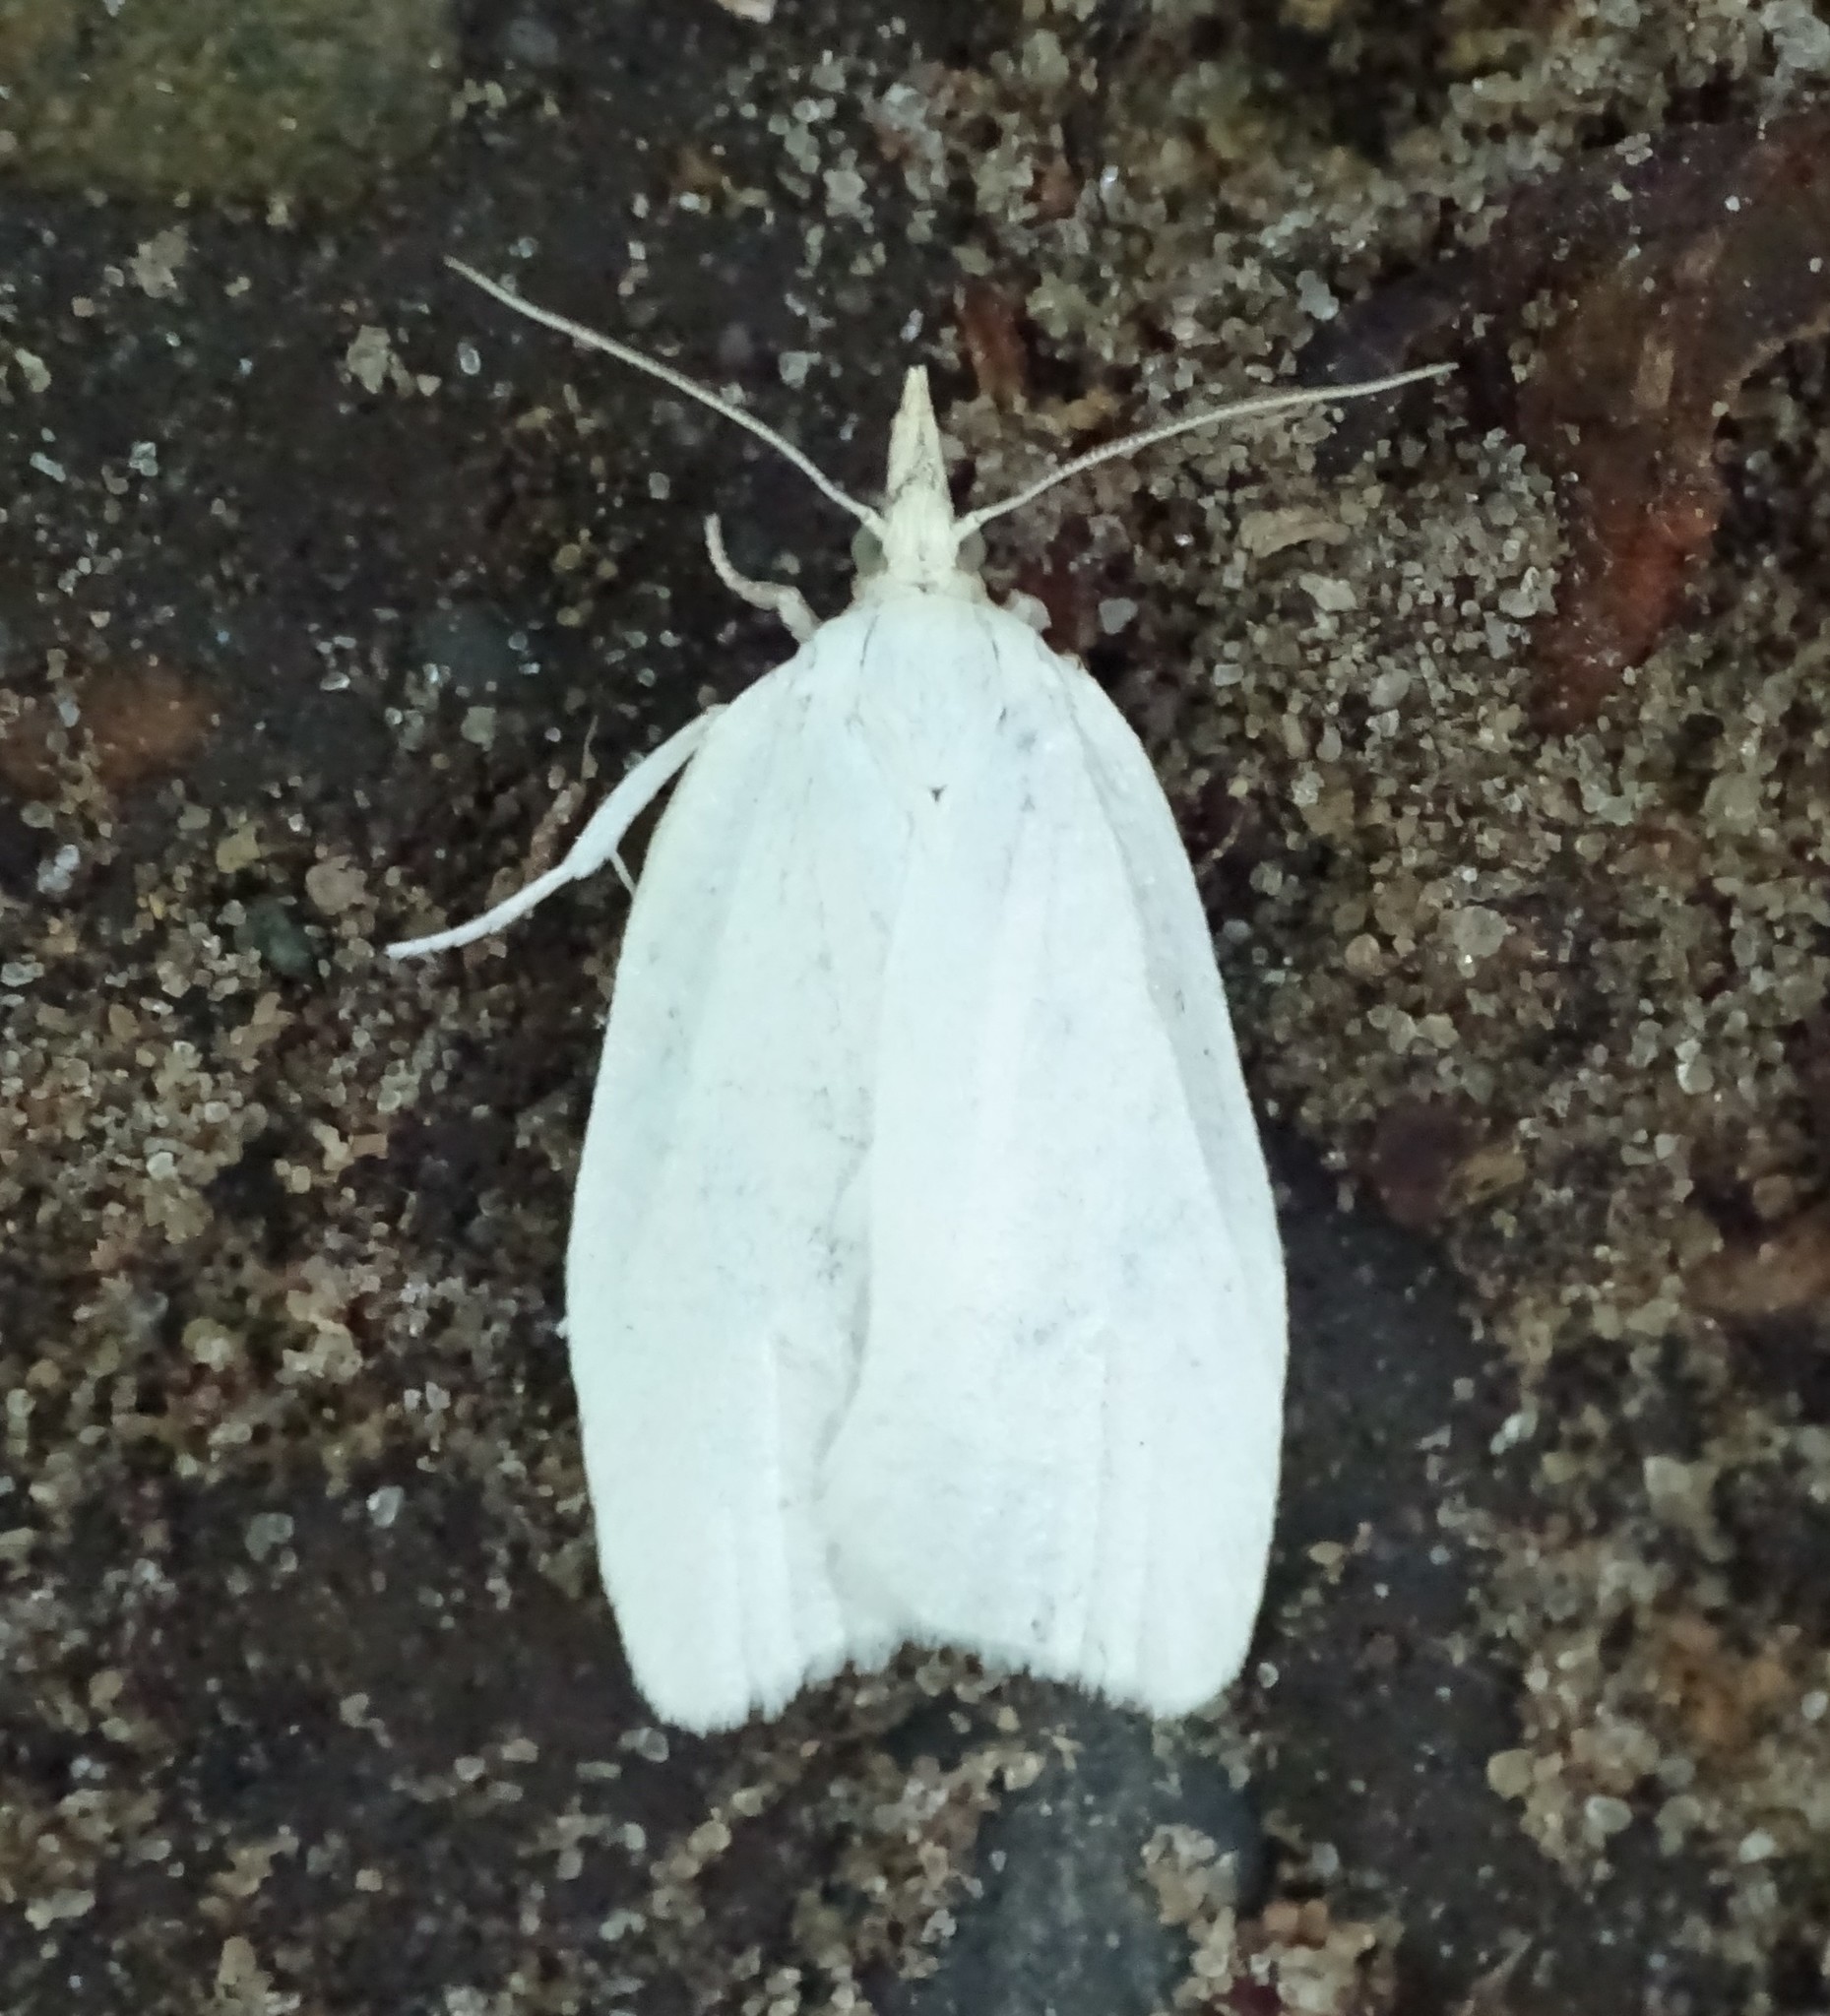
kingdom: Animalia
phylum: Arthropoda
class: Insecta
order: Lepidoptera
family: Tortricidae
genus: Cenopis
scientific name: Cenopis pettitana
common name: Maple-basswood leafroller moth
